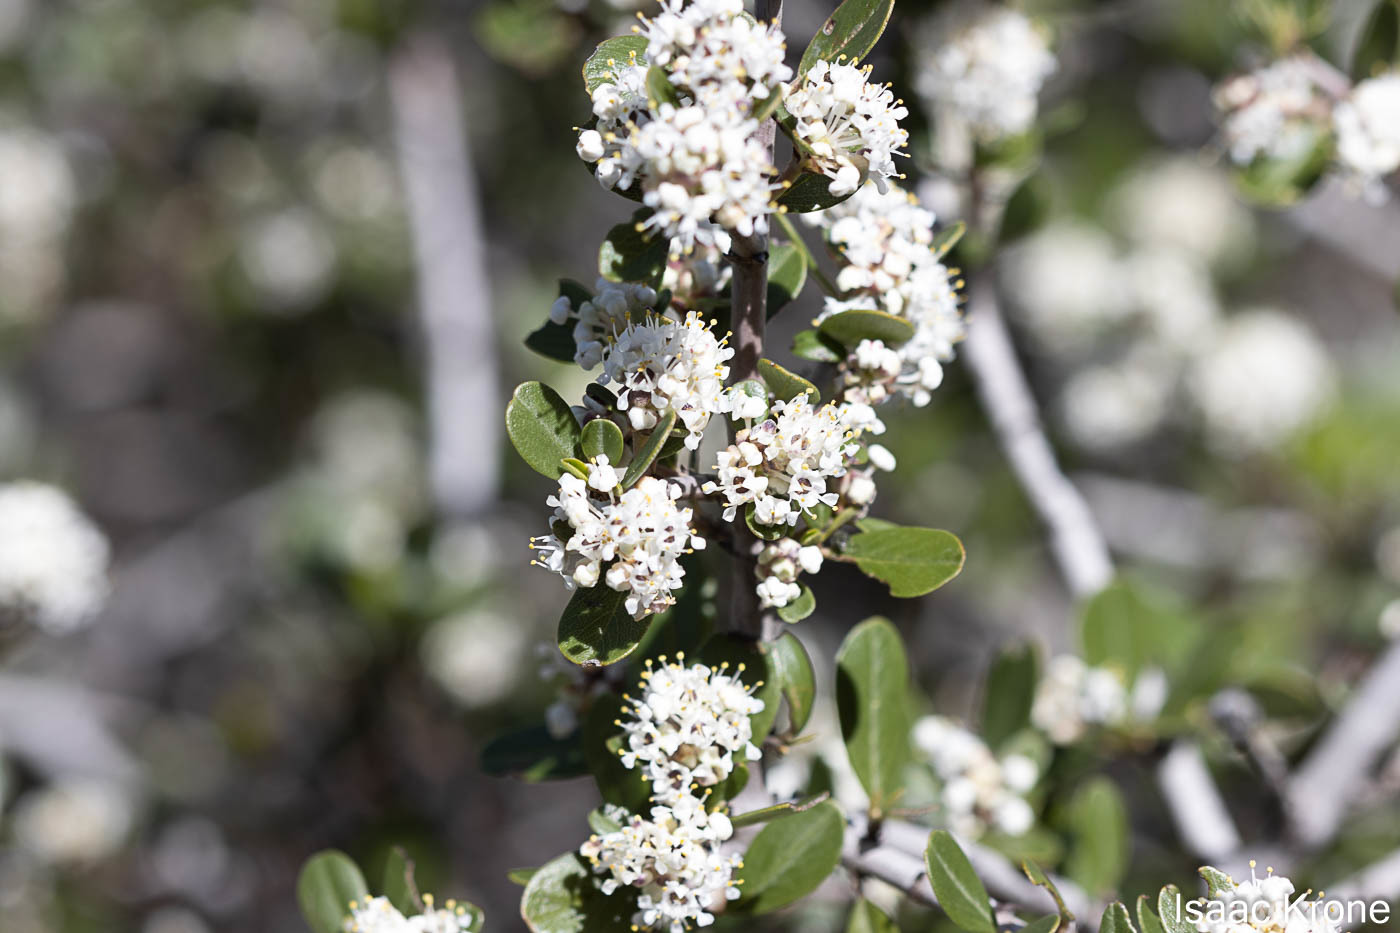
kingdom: Plantae
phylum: Tracheophyta
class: Magnoliopsida
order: Rosales
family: Rhamnaceae
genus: Ceanothus
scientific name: Ceanothus cuneatus
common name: Cuneate ceanothus
